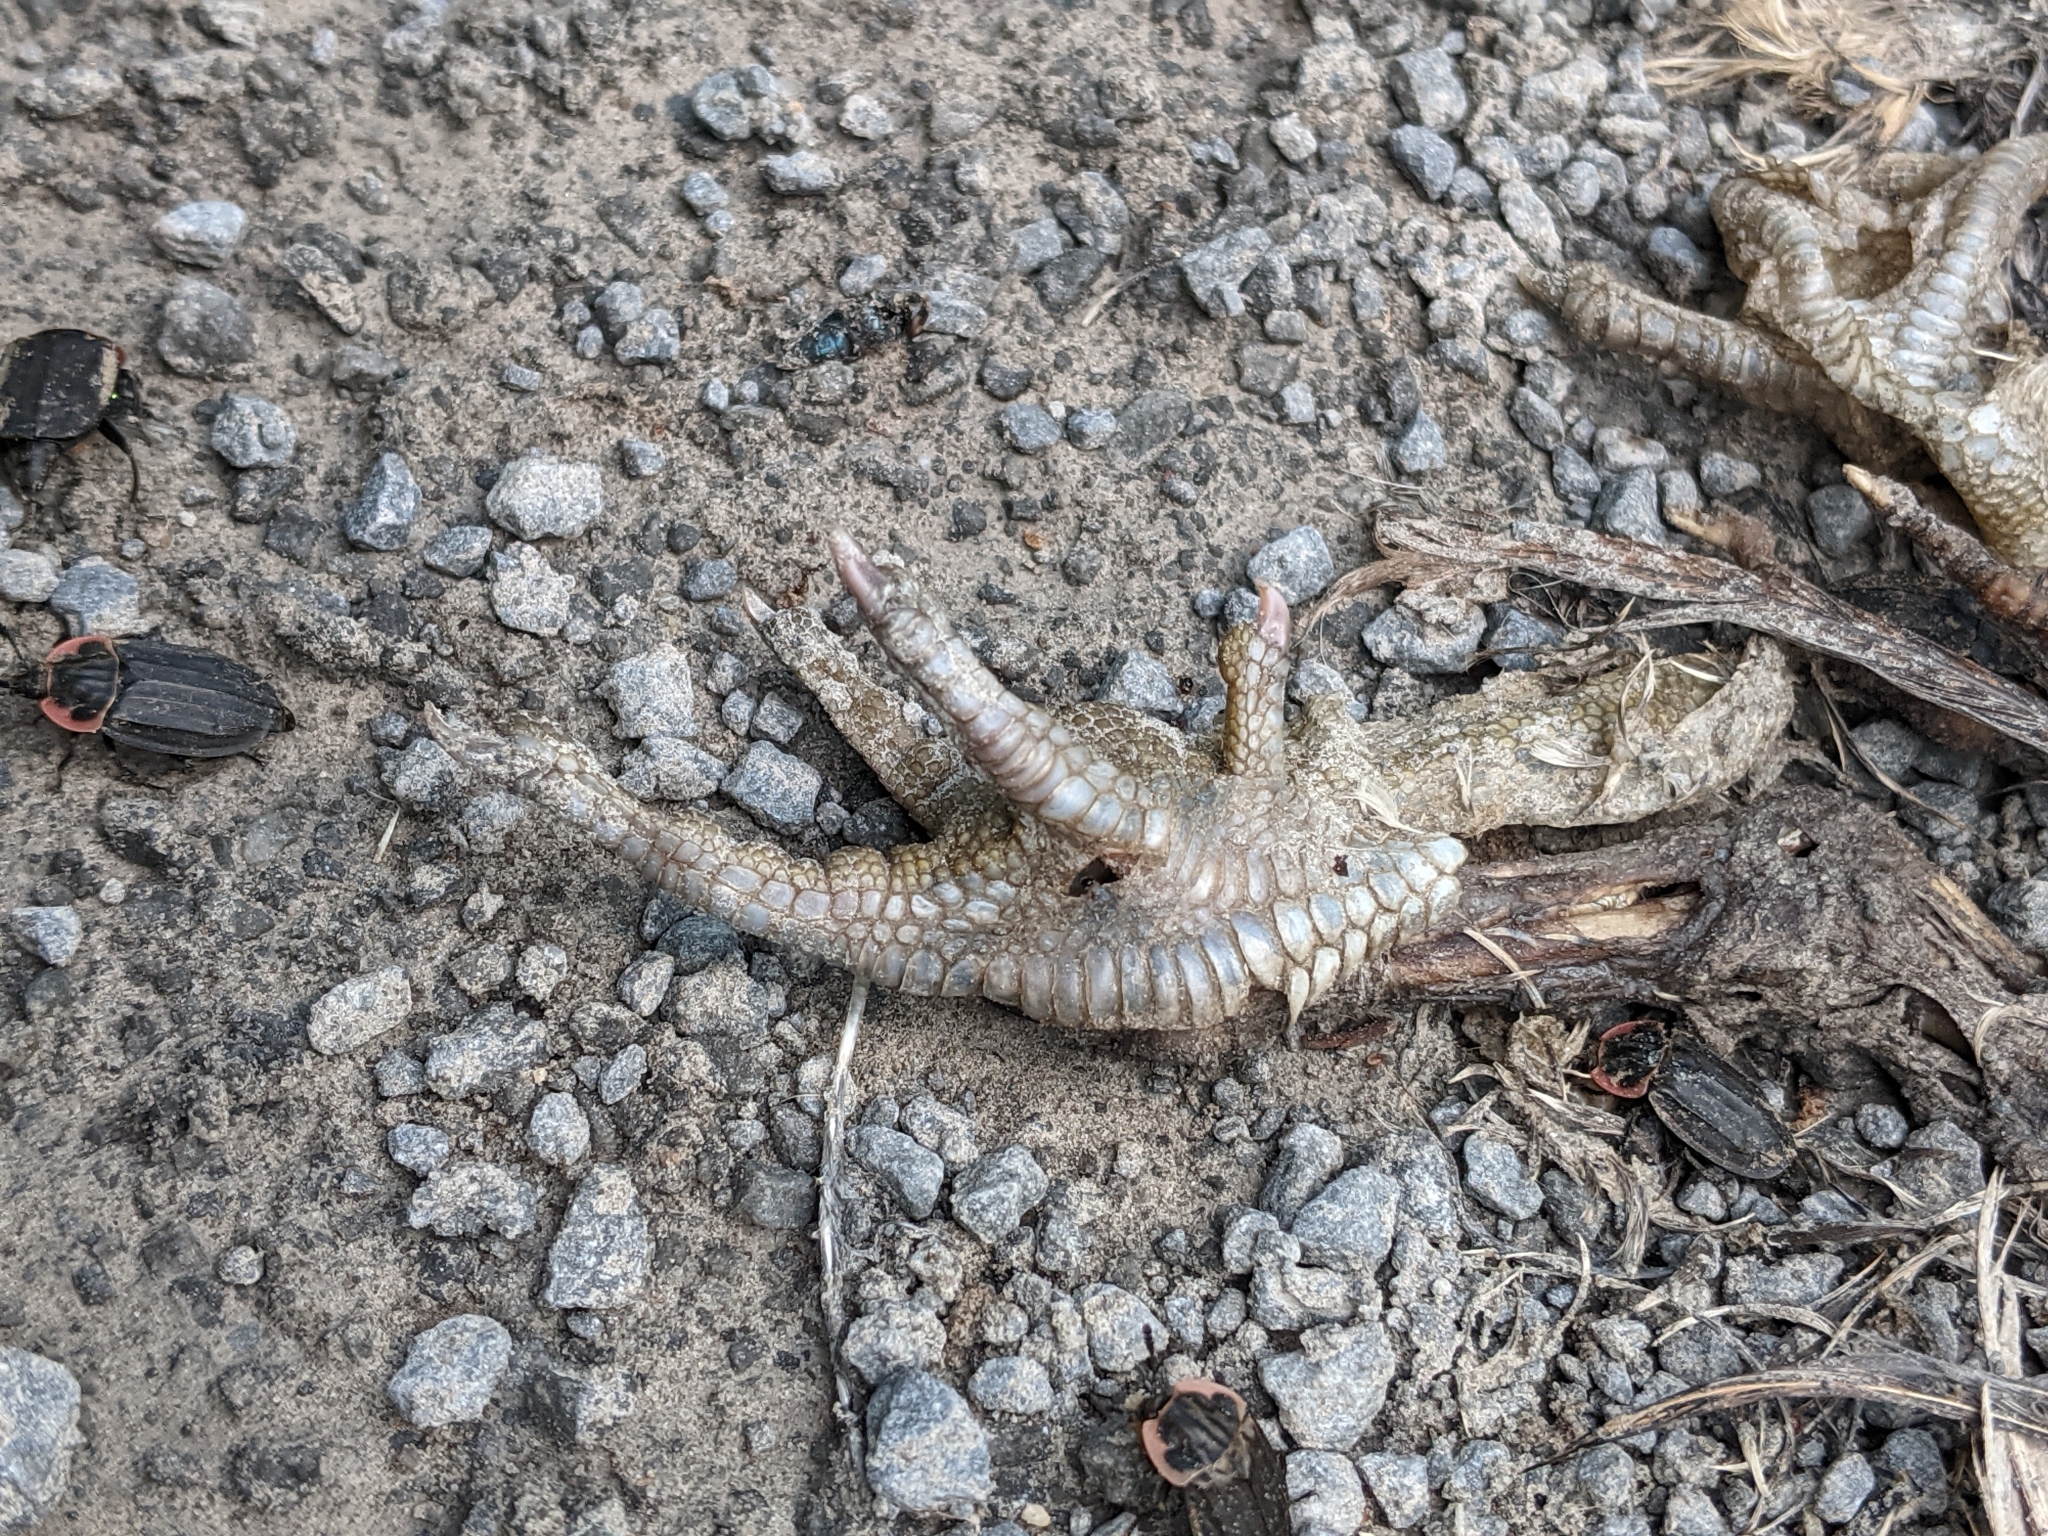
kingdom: Animalia
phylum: Chordata
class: Aves
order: Galliformes
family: Phasianidae
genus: Bonasa
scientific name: Bonasa umbellus
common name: Ruffed grouse
